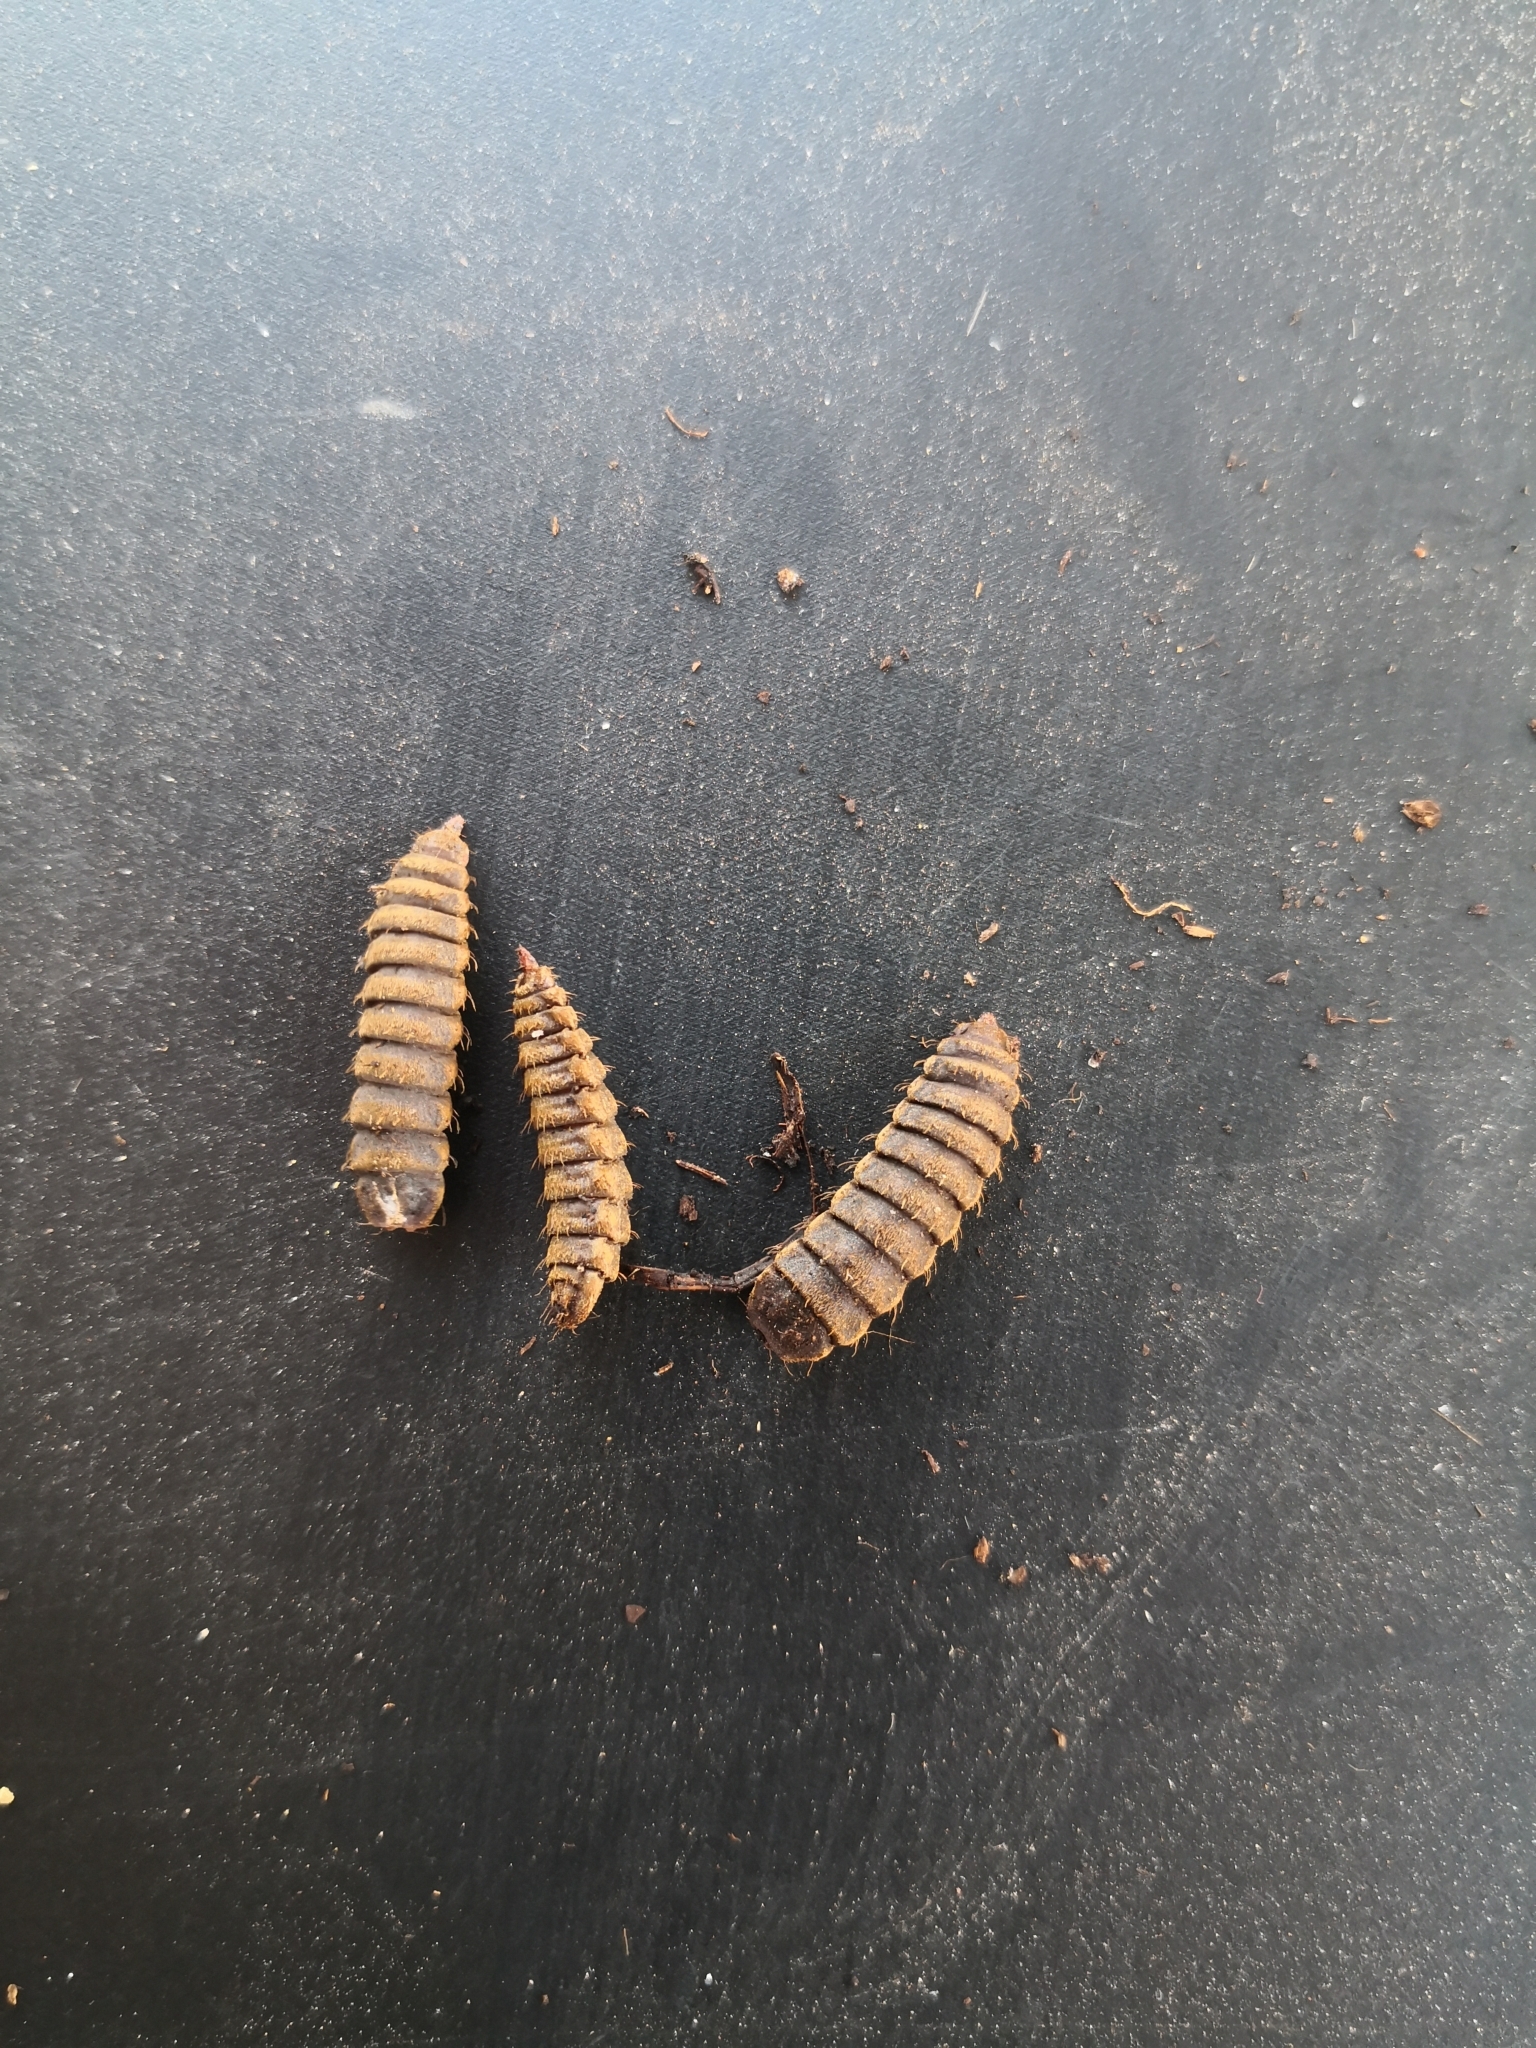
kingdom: Animalia
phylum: Arthropoda
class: Insecta
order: Diptera
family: Stratiomyidae
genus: Hermetia
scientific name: Hermetia illucens
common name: Black soldier fly
